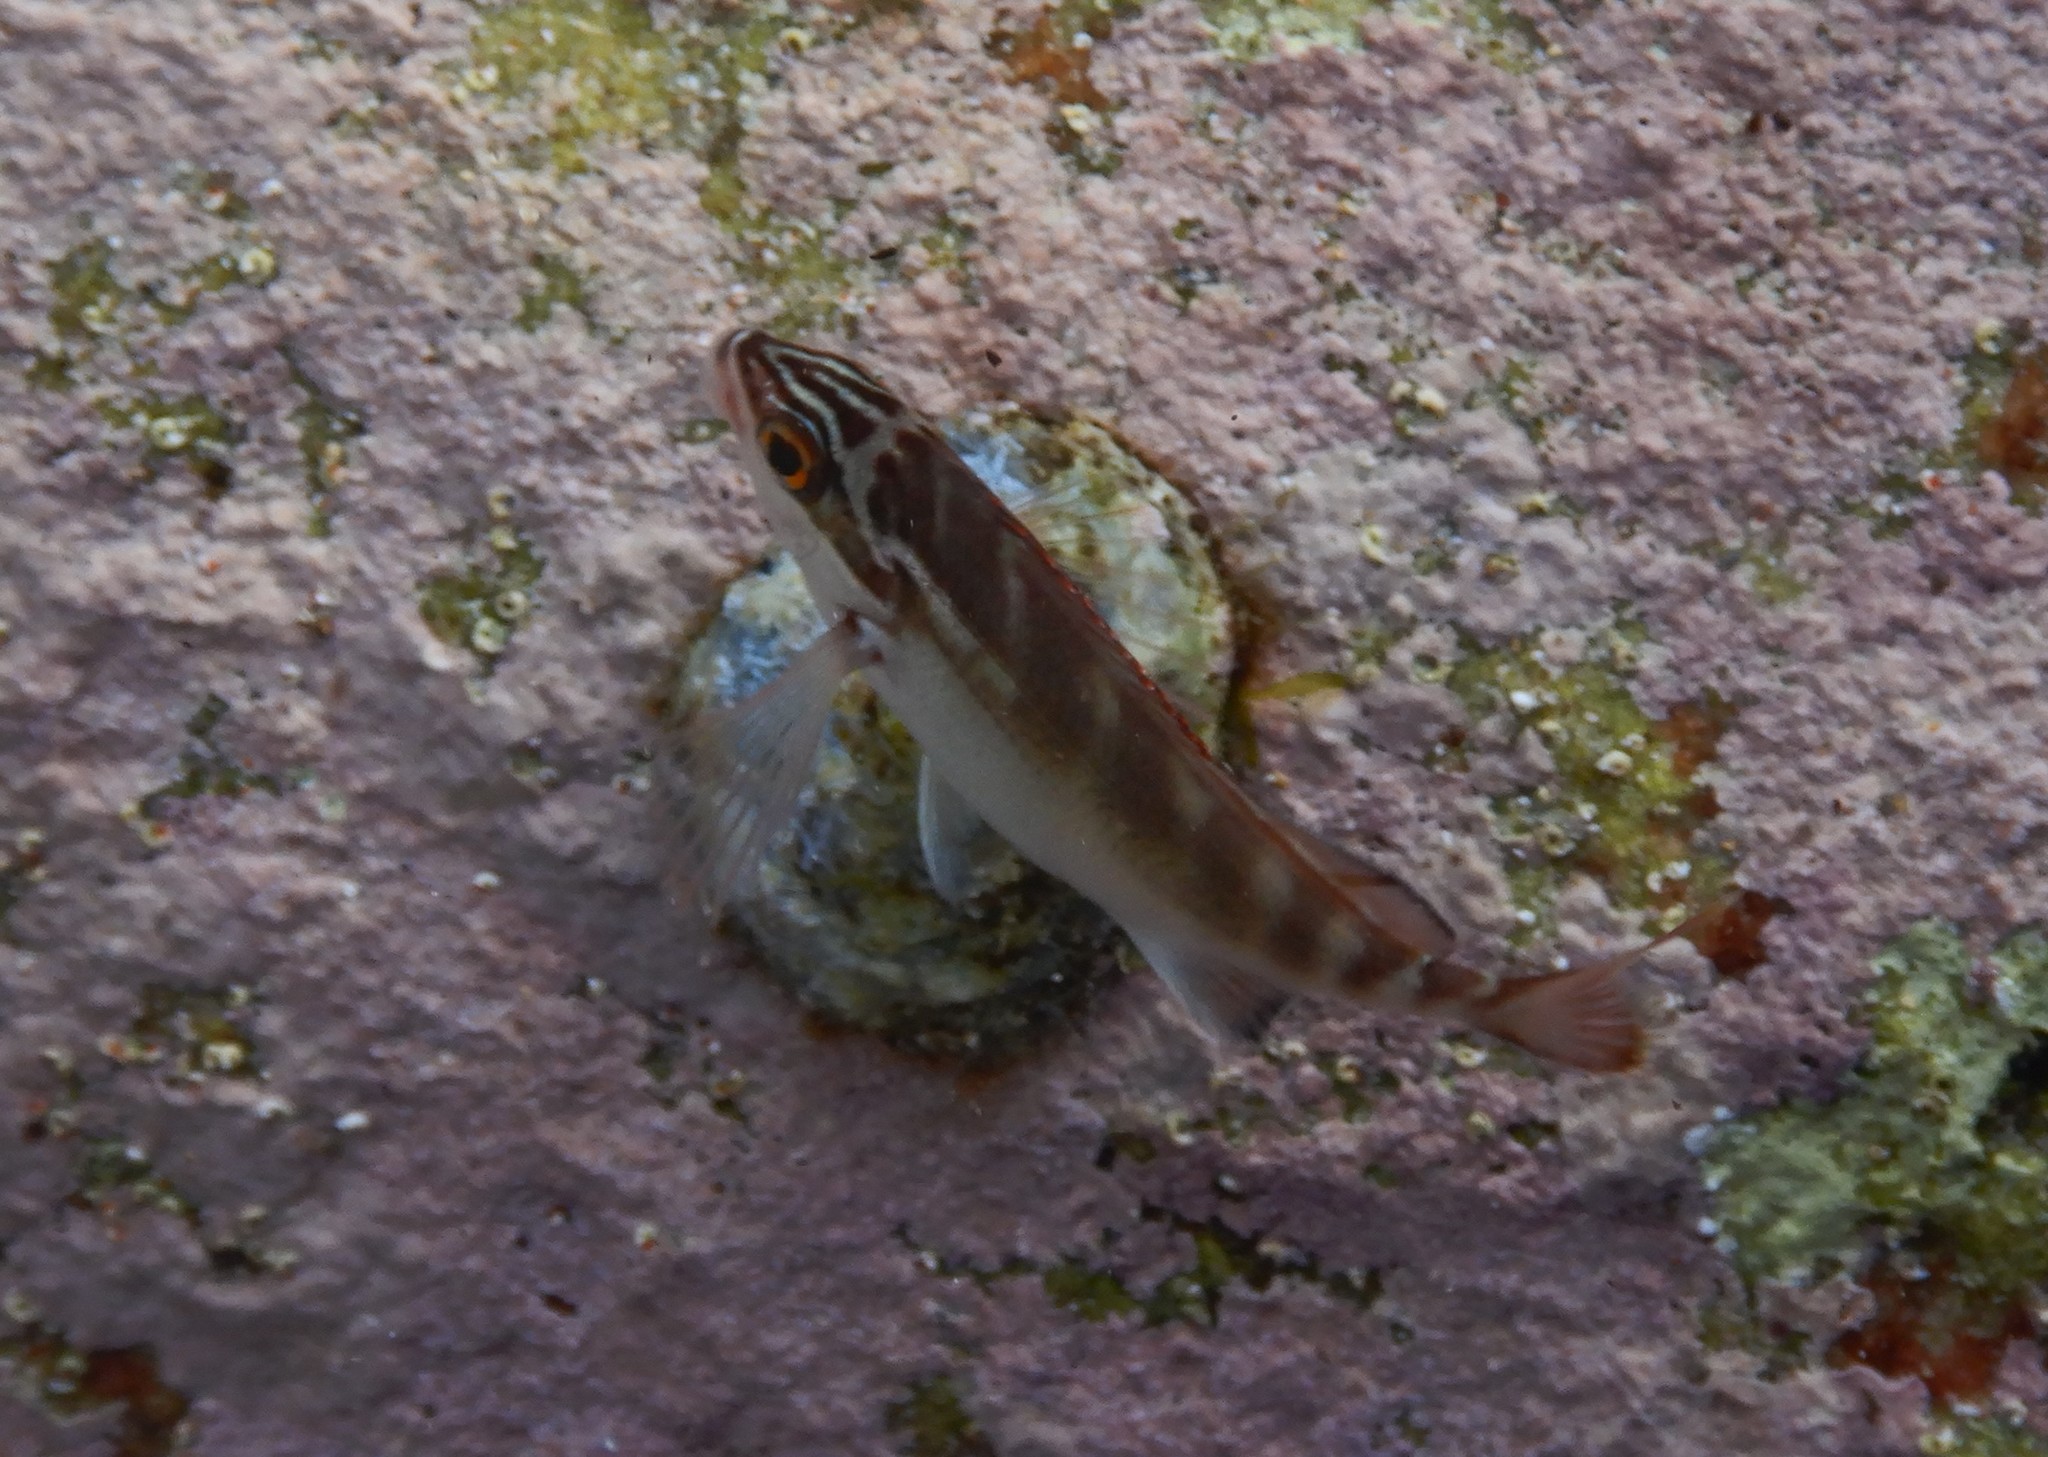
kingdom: Animalia
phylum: Chordata
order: Perciformes
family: Latridae
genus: Morwong
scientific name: Morwong fuscus
